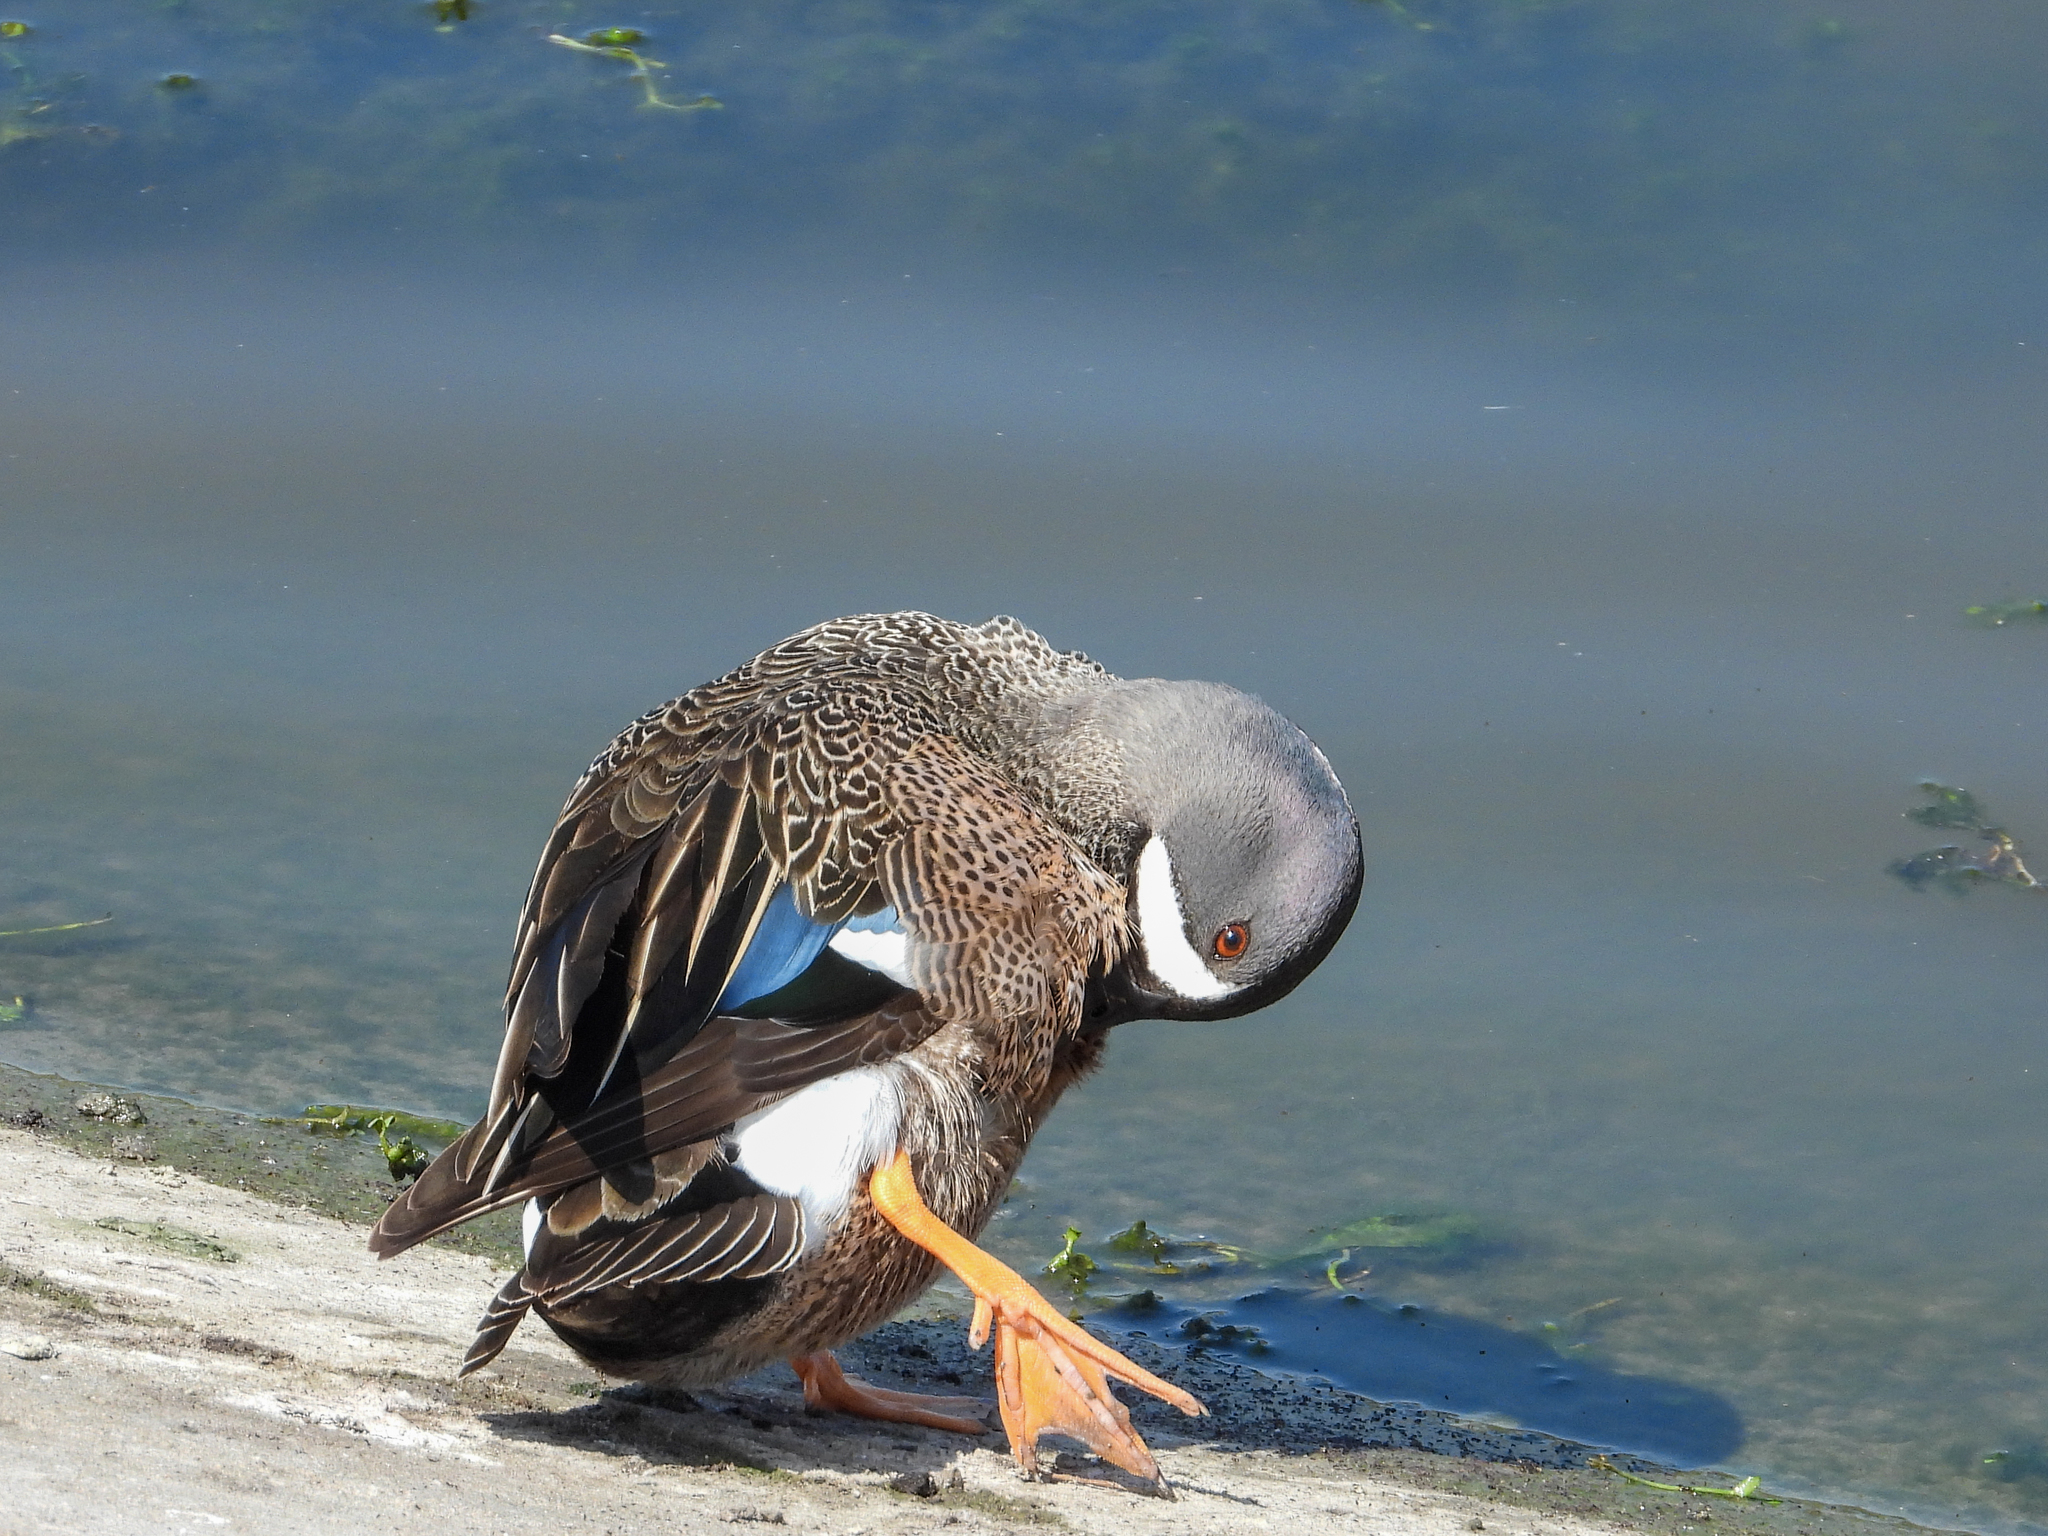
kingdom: Animalia
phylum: Chordata
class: Aves
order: Anseriformes
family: Anatidae
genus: Spatula
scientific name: Spatula discors
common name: Blue-winged teal
